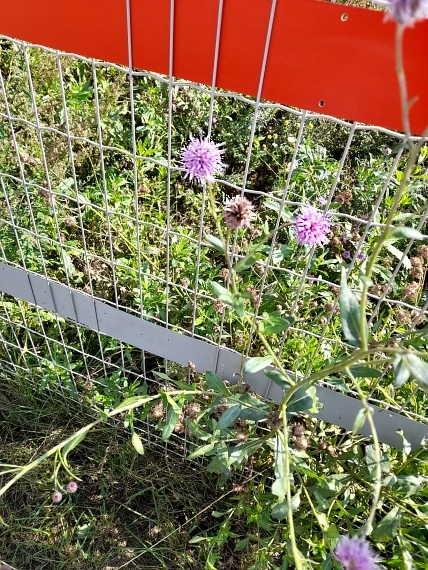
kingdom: Plantae
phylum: Tracheophyta
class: Magnoliopsida
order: Asterales
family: Asteraceae
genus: Cirsium
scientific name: Cirsium arvense
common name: Creeping thistle
